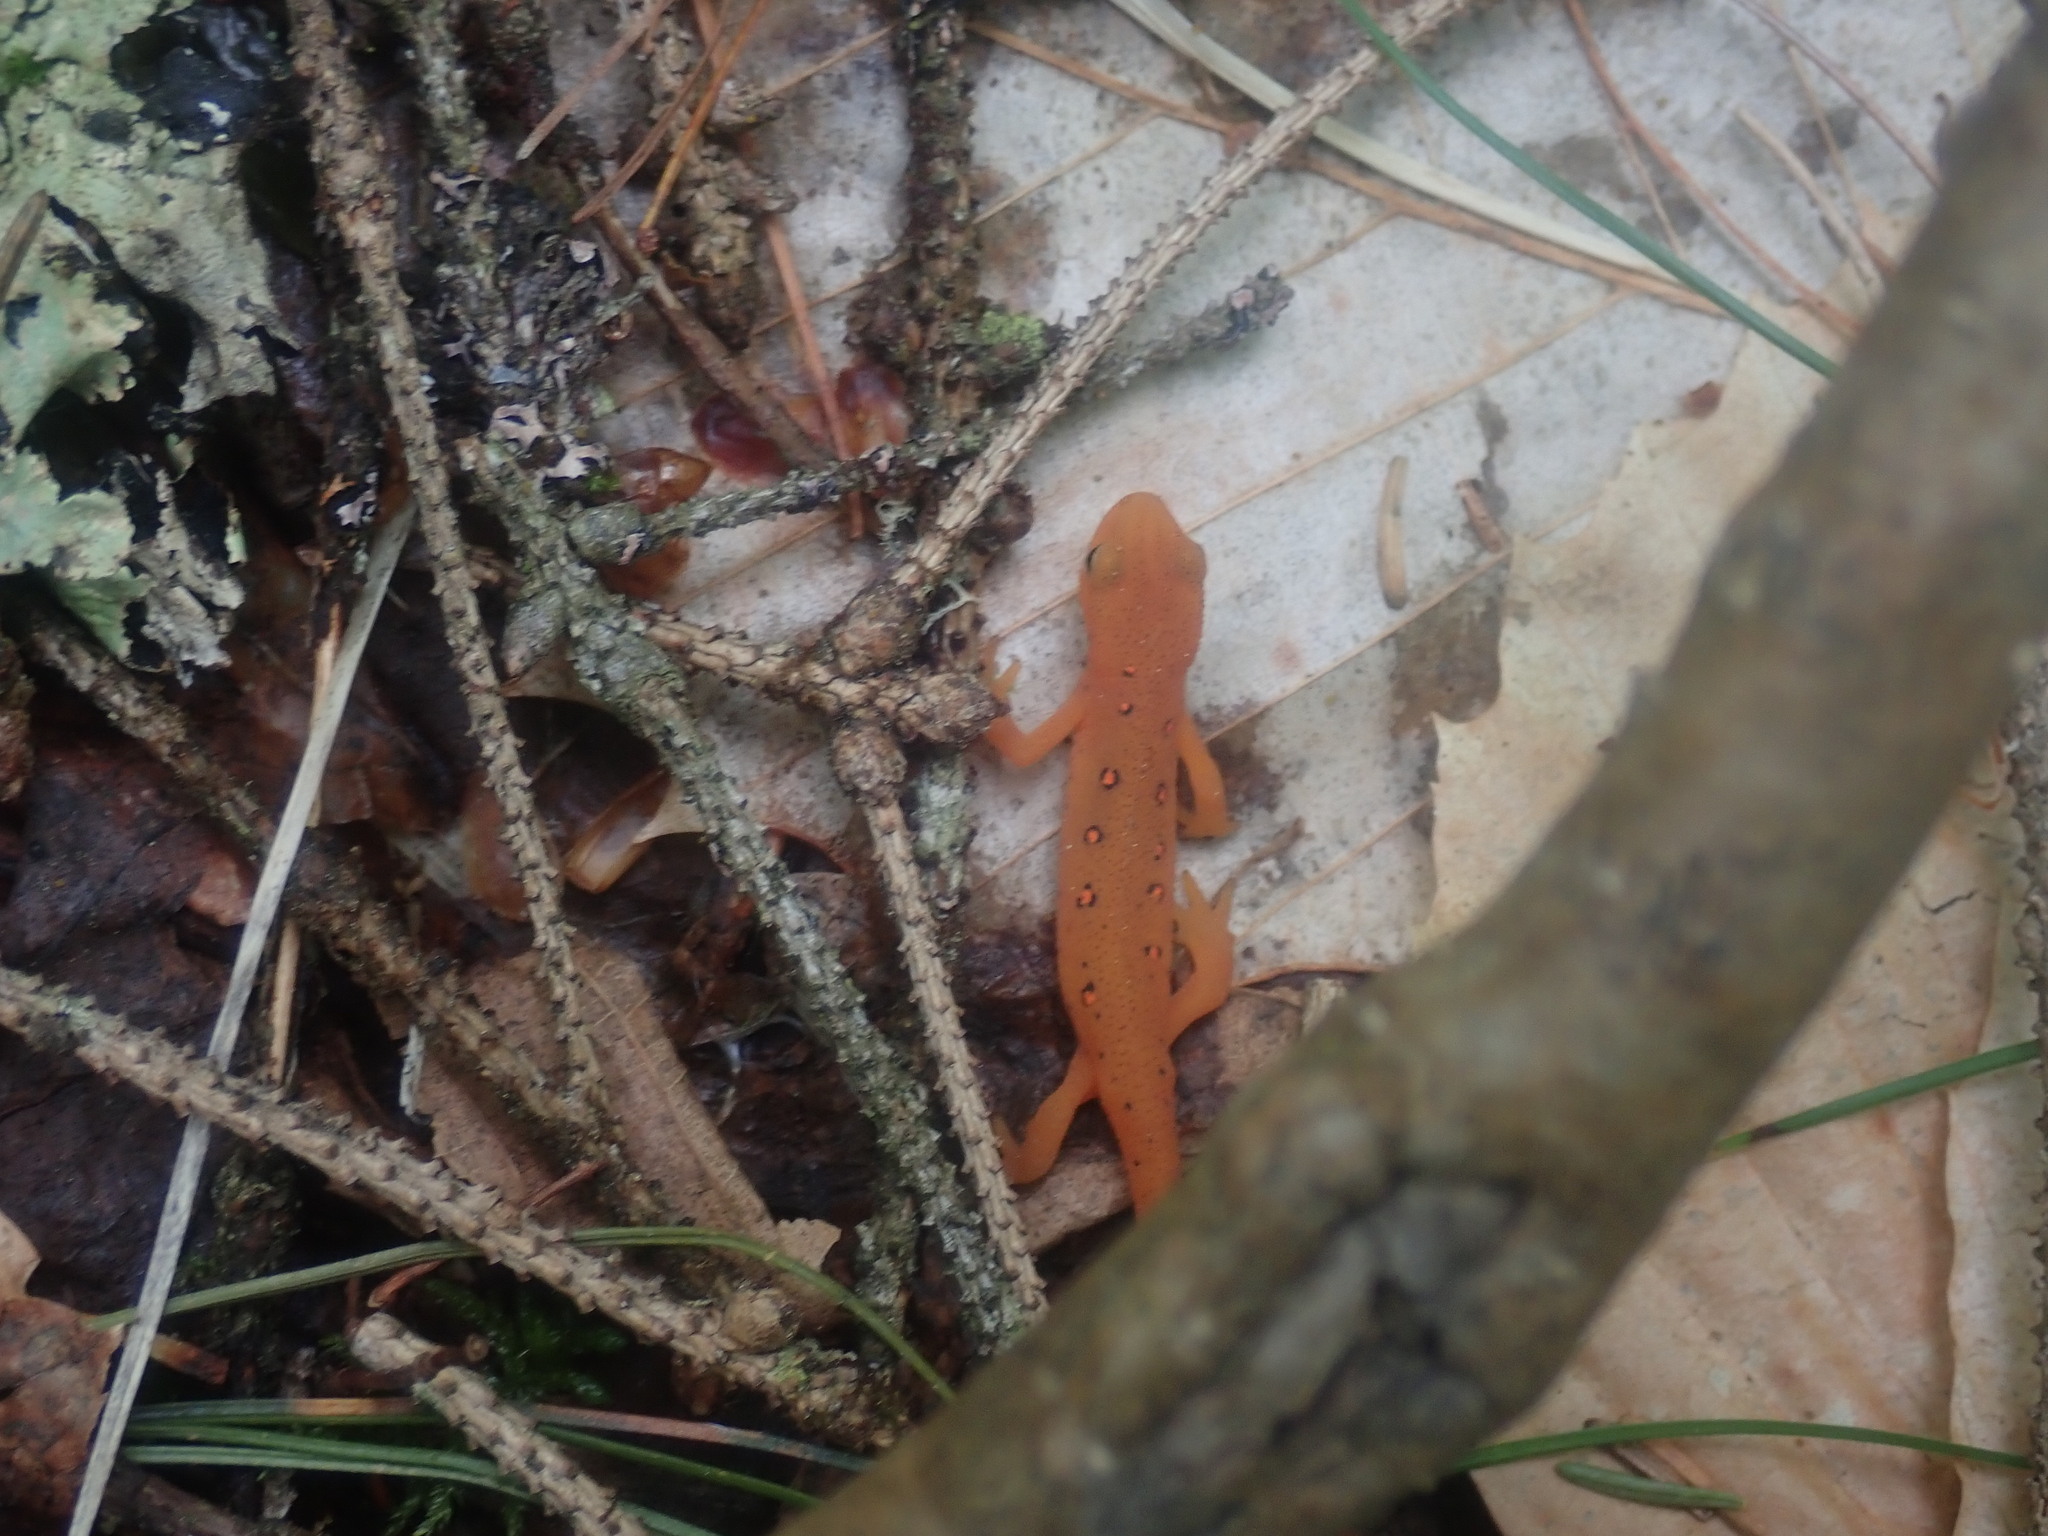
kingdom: Animalia
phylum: Chordata
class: Amphibia
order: Caudata
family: Salamandridae
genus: Notophthalmus
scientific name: Notophthalmus viridescens
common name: Eastern newt
